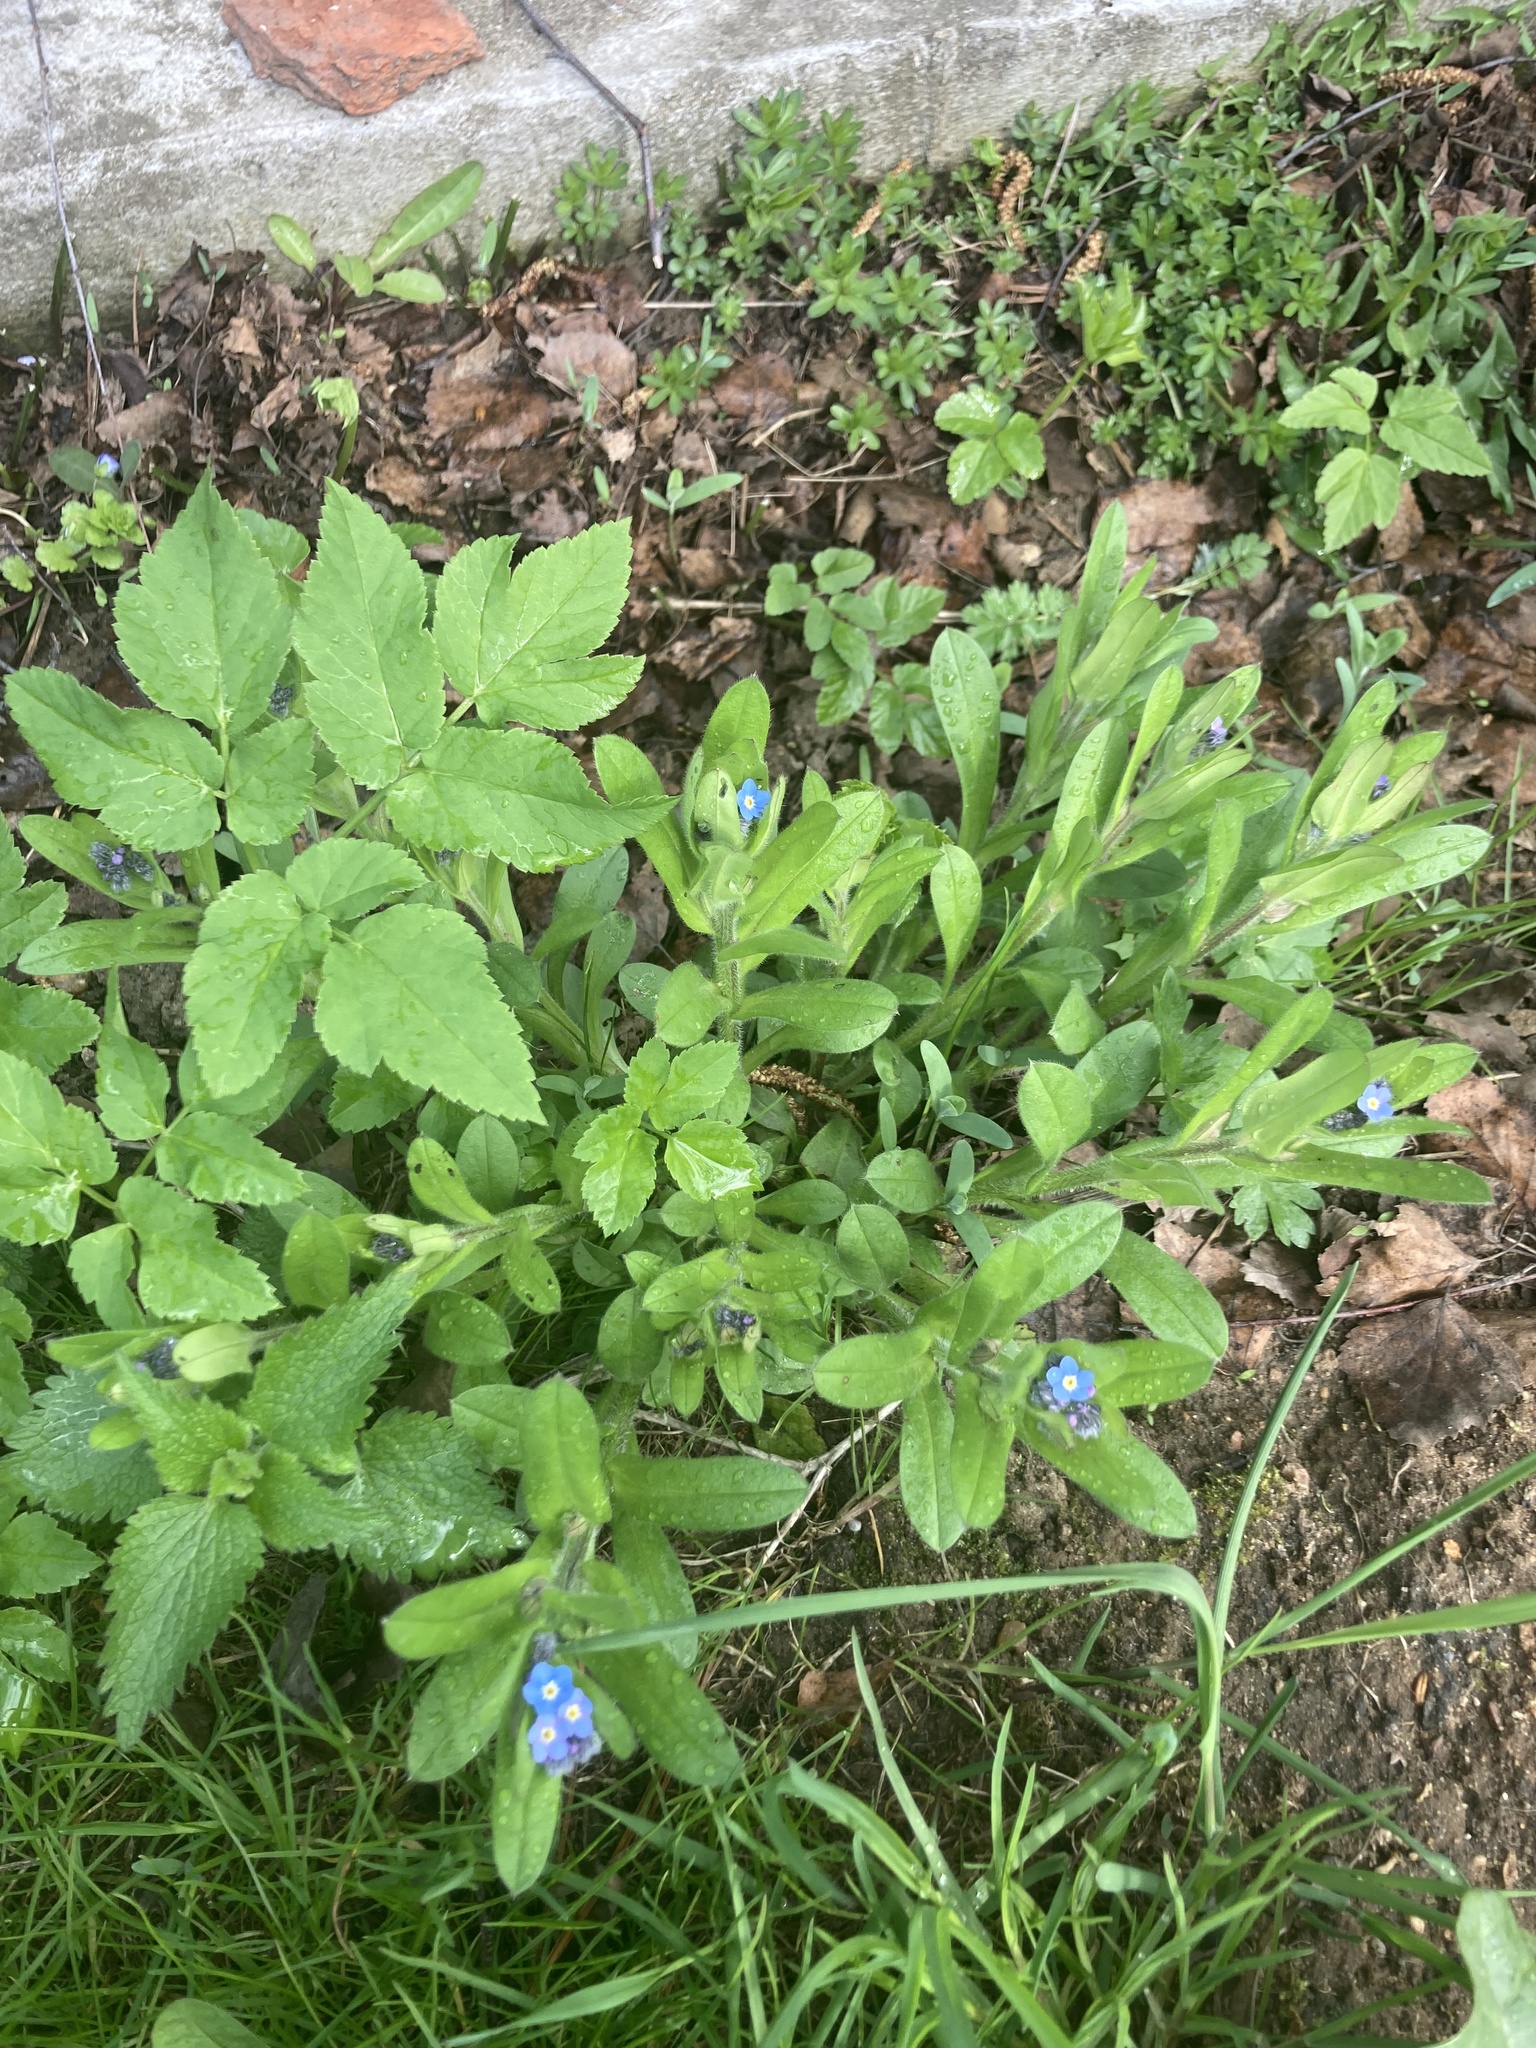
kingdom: Plantae
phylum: Tracheophyta
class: Magnoliopsida
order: Boraginales
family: Boraginaceae
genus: Myosotis
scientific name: Myosotis sylvatica
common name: Wood forget-me-not
